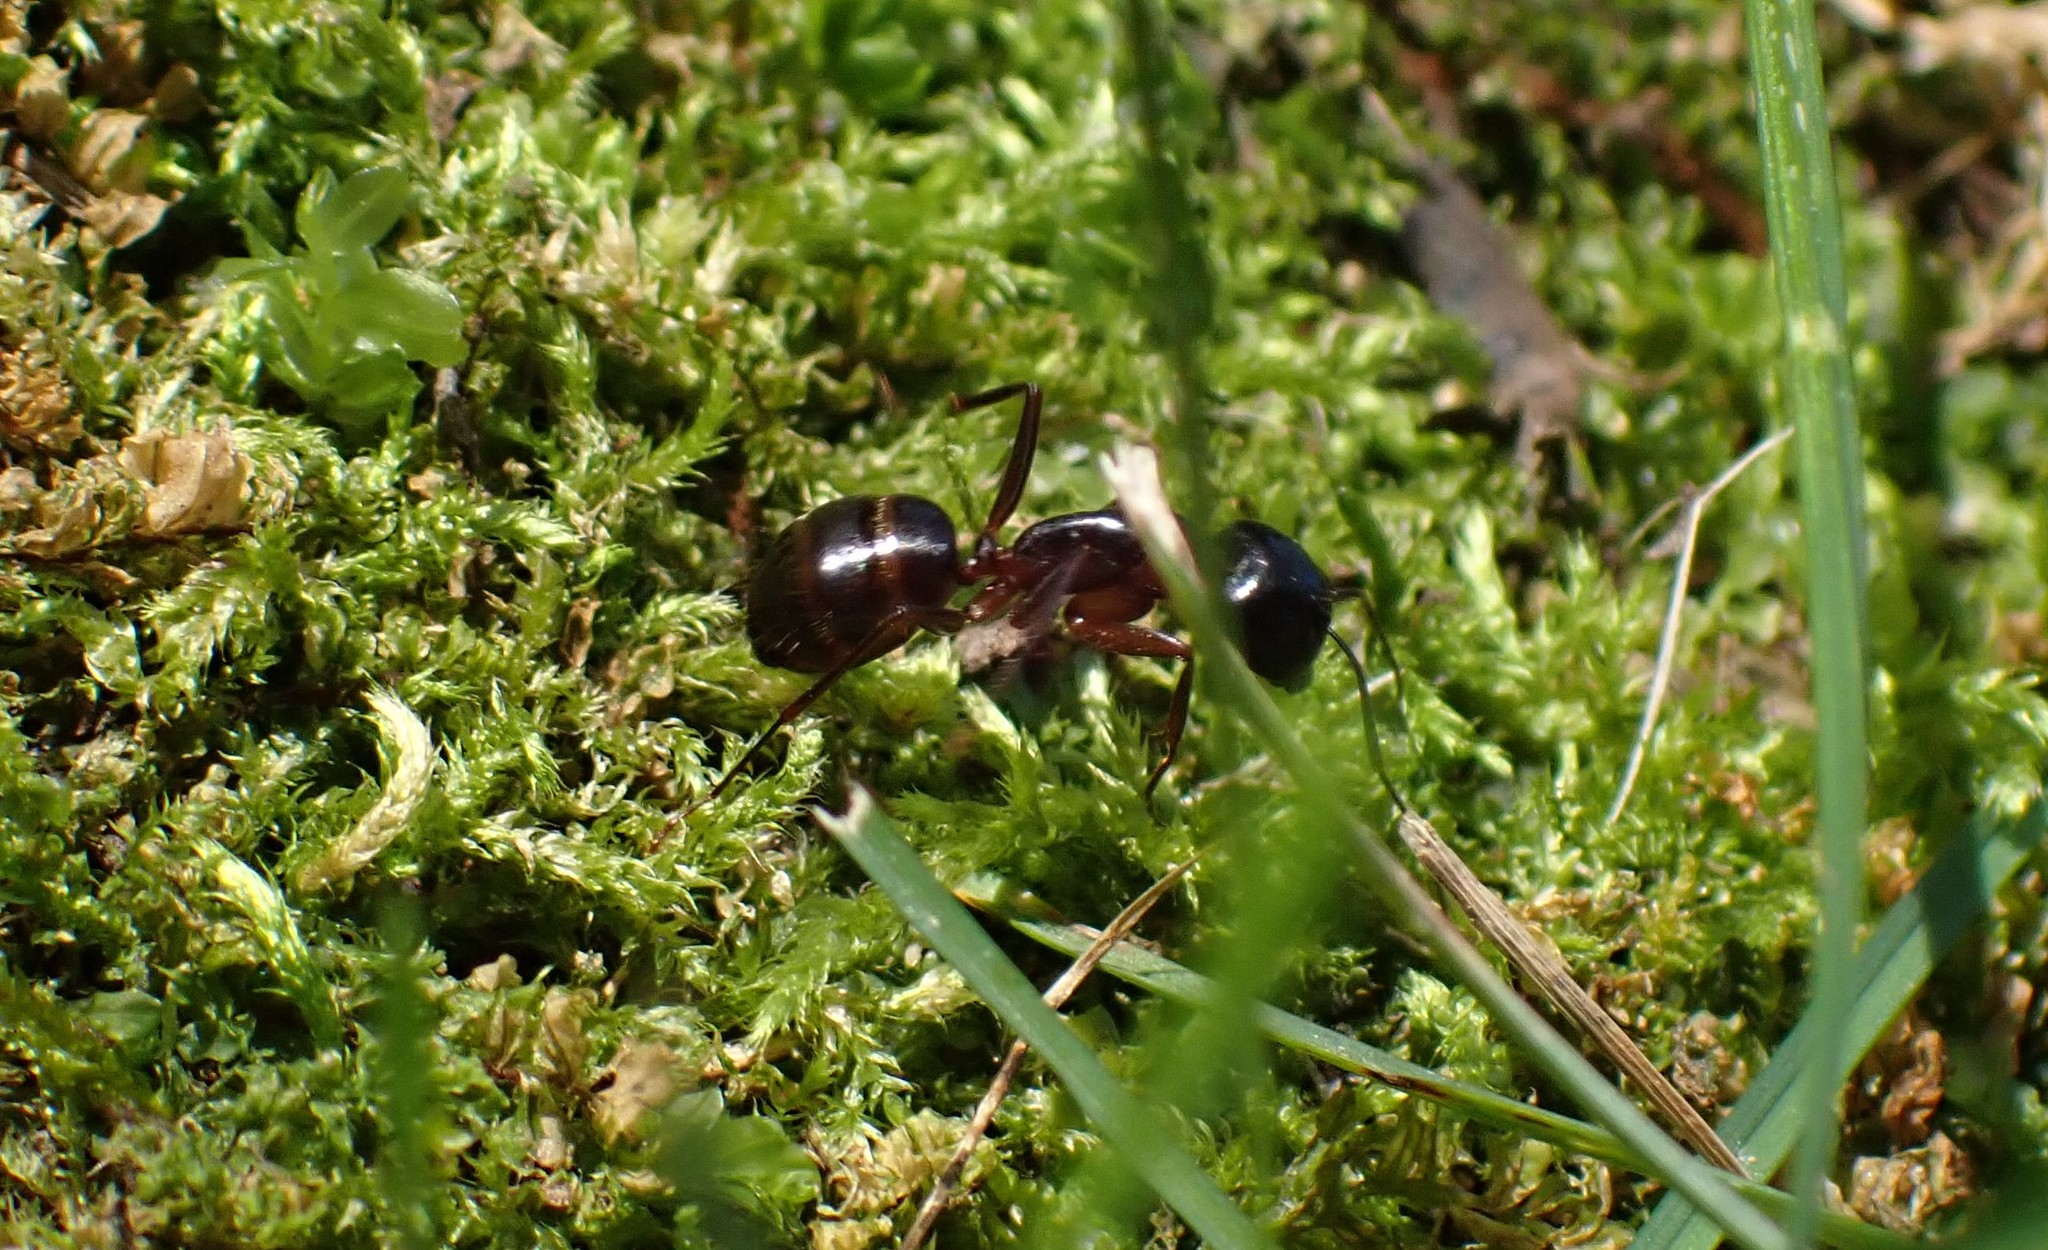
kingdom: Animalia
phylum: Arthropoda
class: Insecta
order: Hymenoptera
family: Formicidae
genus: Camponotus
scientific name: Camponotus americanus
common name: American carpenter ant
